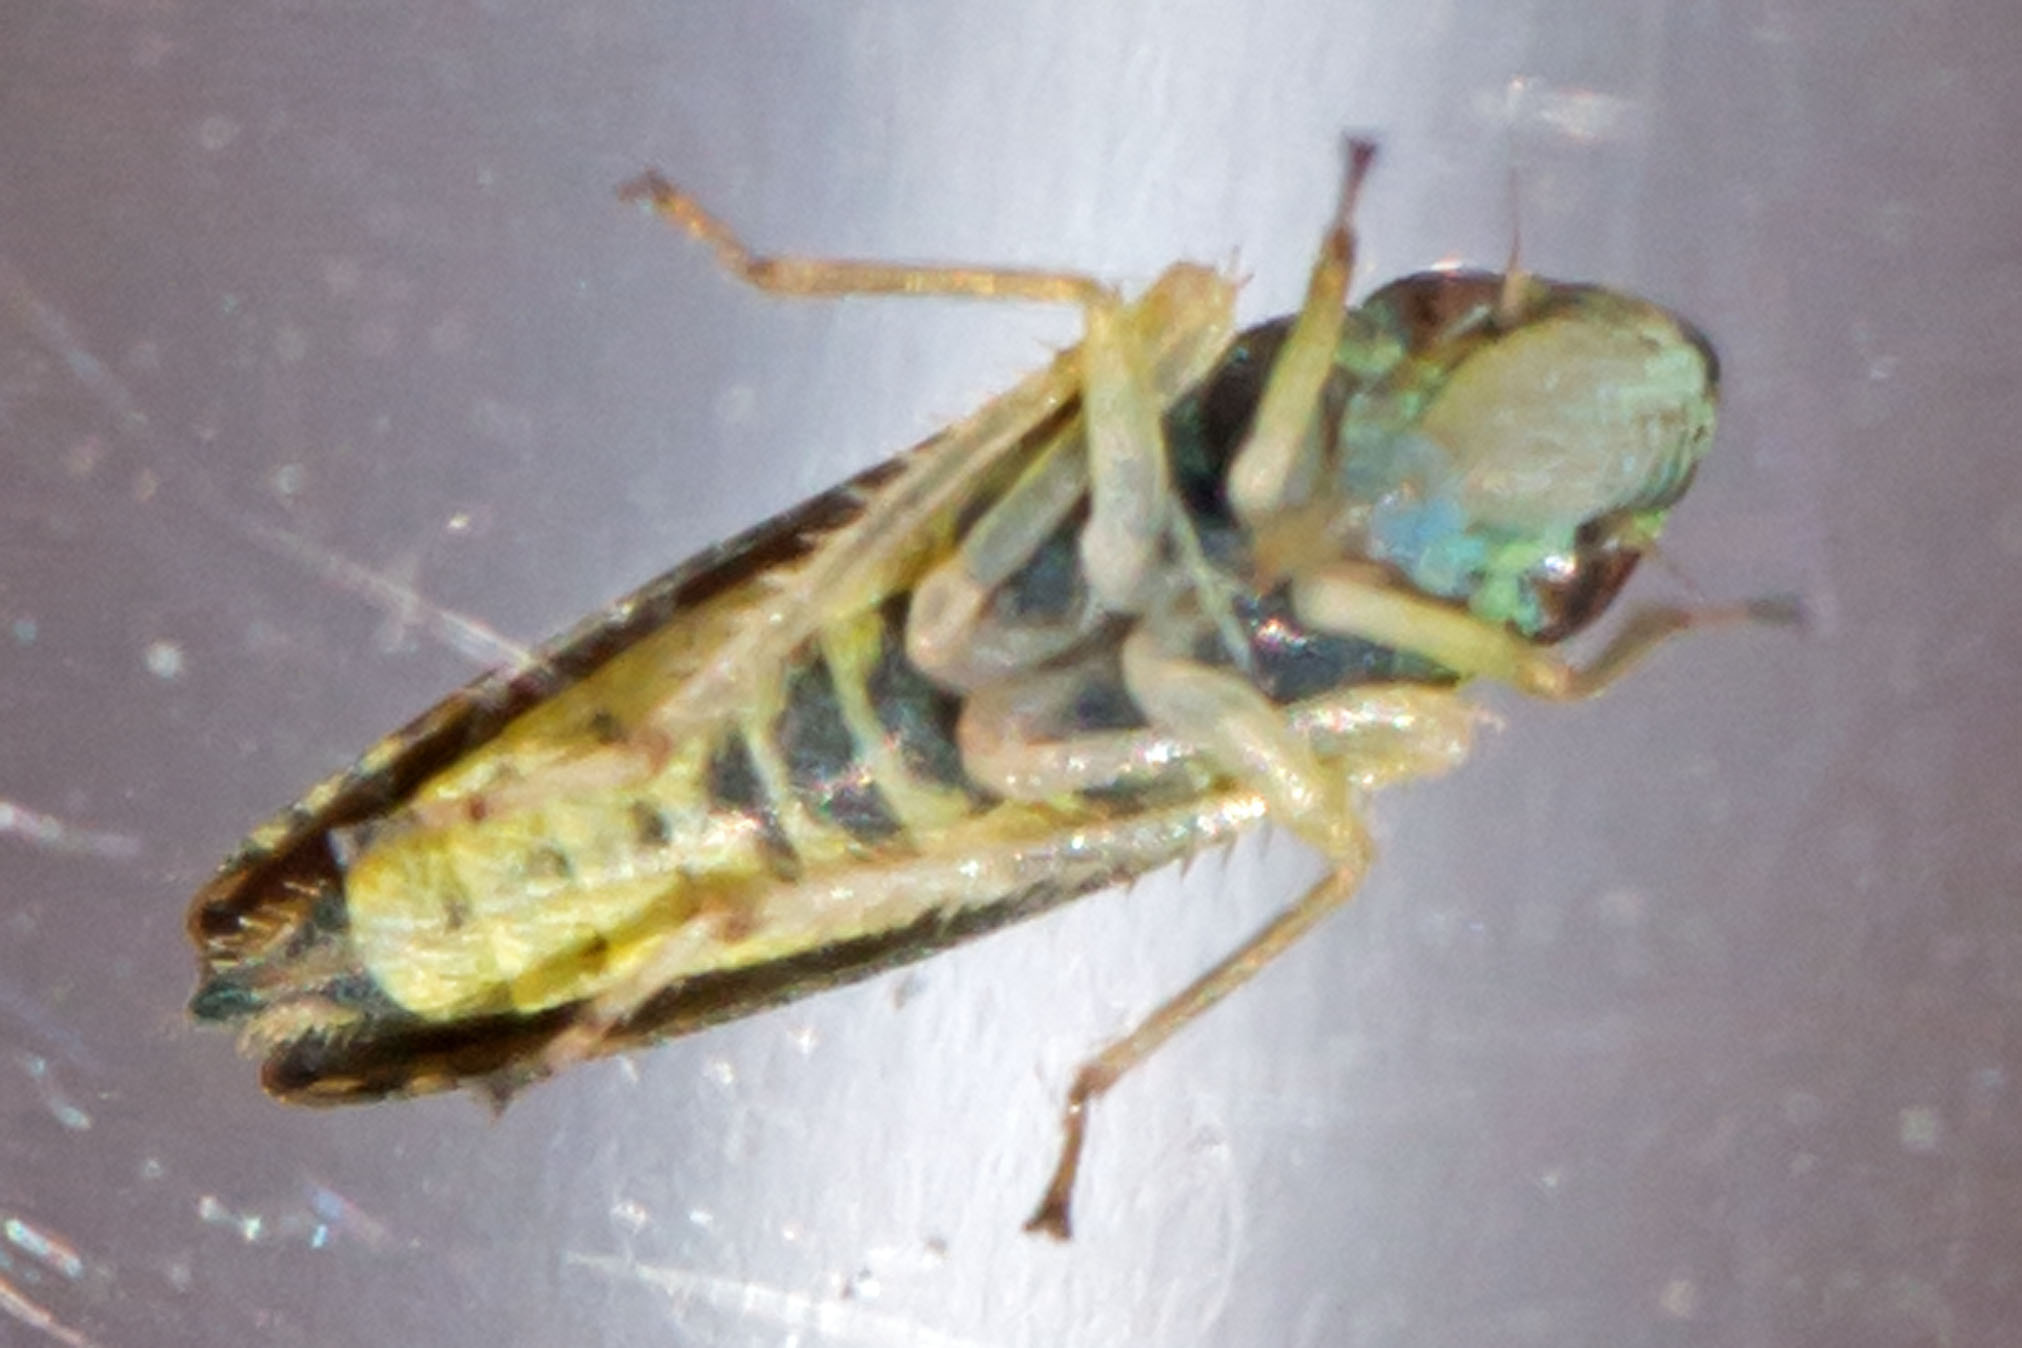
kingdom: Animalia
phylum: Arthropoda
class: Insecta
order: Hemiptera
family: Cicadellidae
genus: Graphocephala
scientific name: Graphocephala versuta
